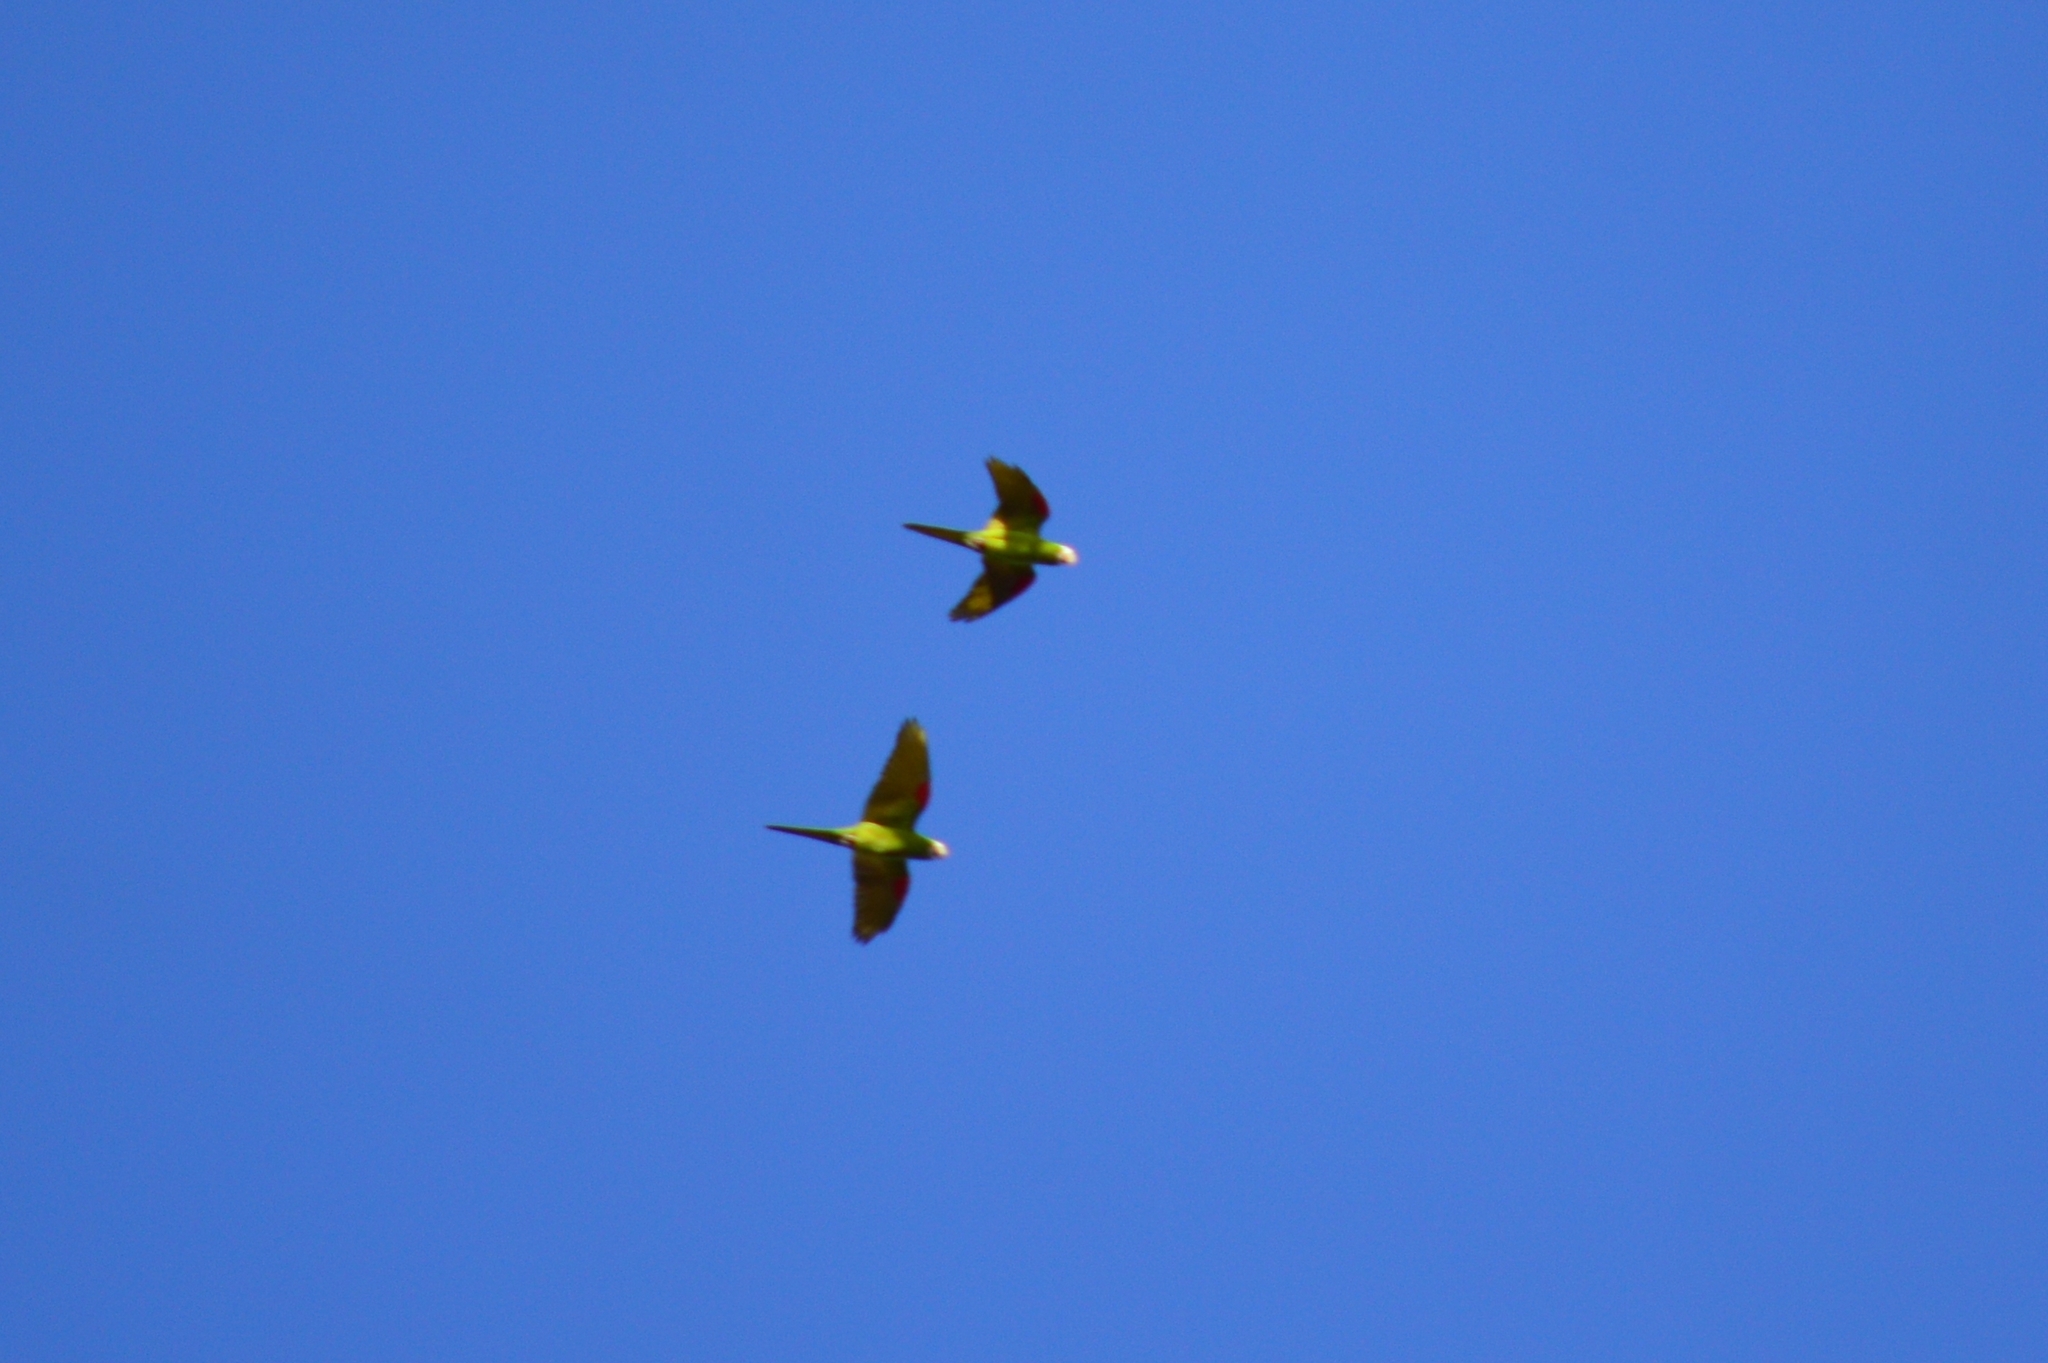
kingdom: Animalia
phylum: Chordata
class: Aves
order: Psittaciformes
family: Psittacidae
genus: Orthopsittaca
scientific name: Orthopsittaca manilata
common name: Red-bellied macaw
